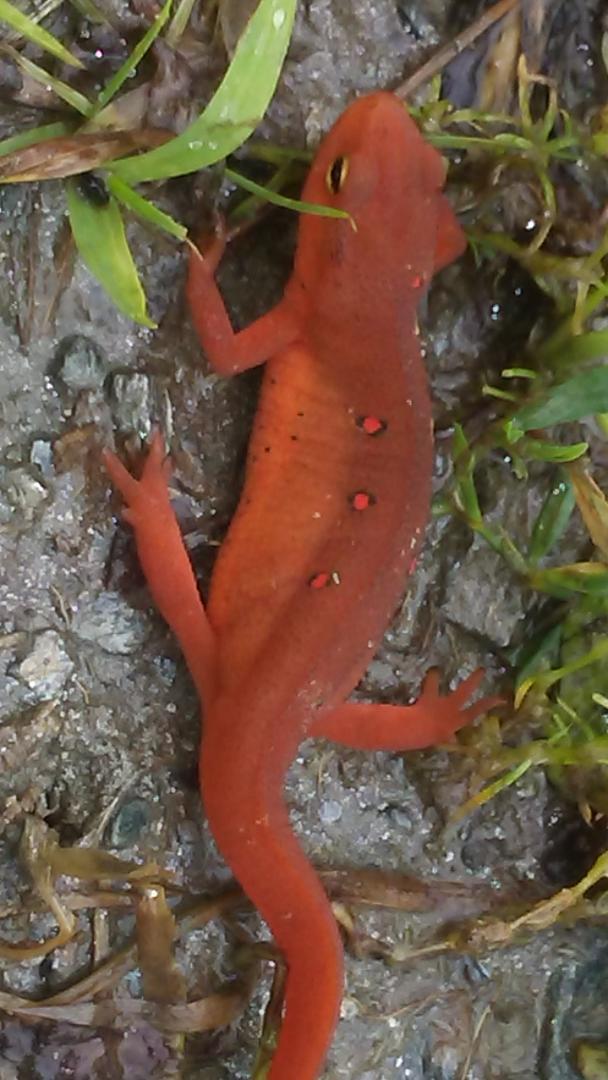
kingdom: Animalia
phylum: Chordata
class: Amphibia
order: Caudata
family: Salamandridae
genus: Notophthalmus
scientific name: Notophthalmus viridescens
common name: Eastern newt
